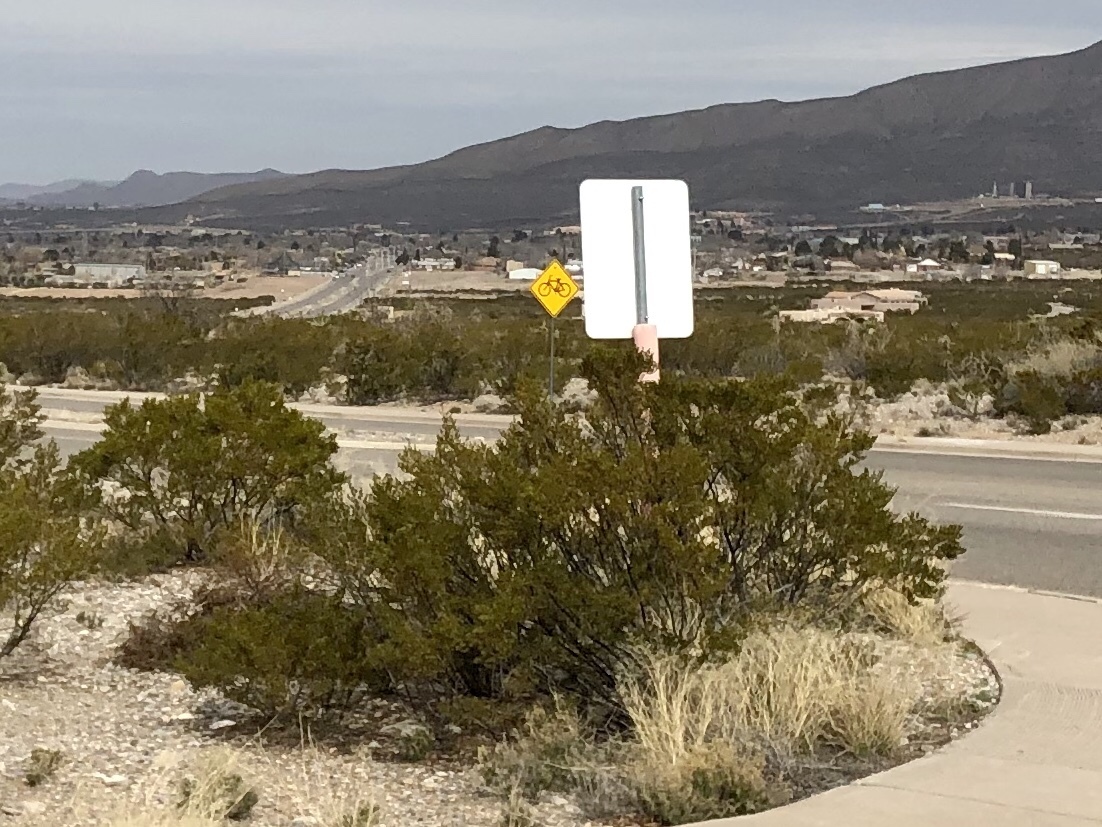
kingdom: Plantae
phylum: Tracheophyta
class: Magnoliopsida
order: Zygophyllales
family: Zygophyllaceae
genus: Larrea
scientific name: Larrea tridentata
